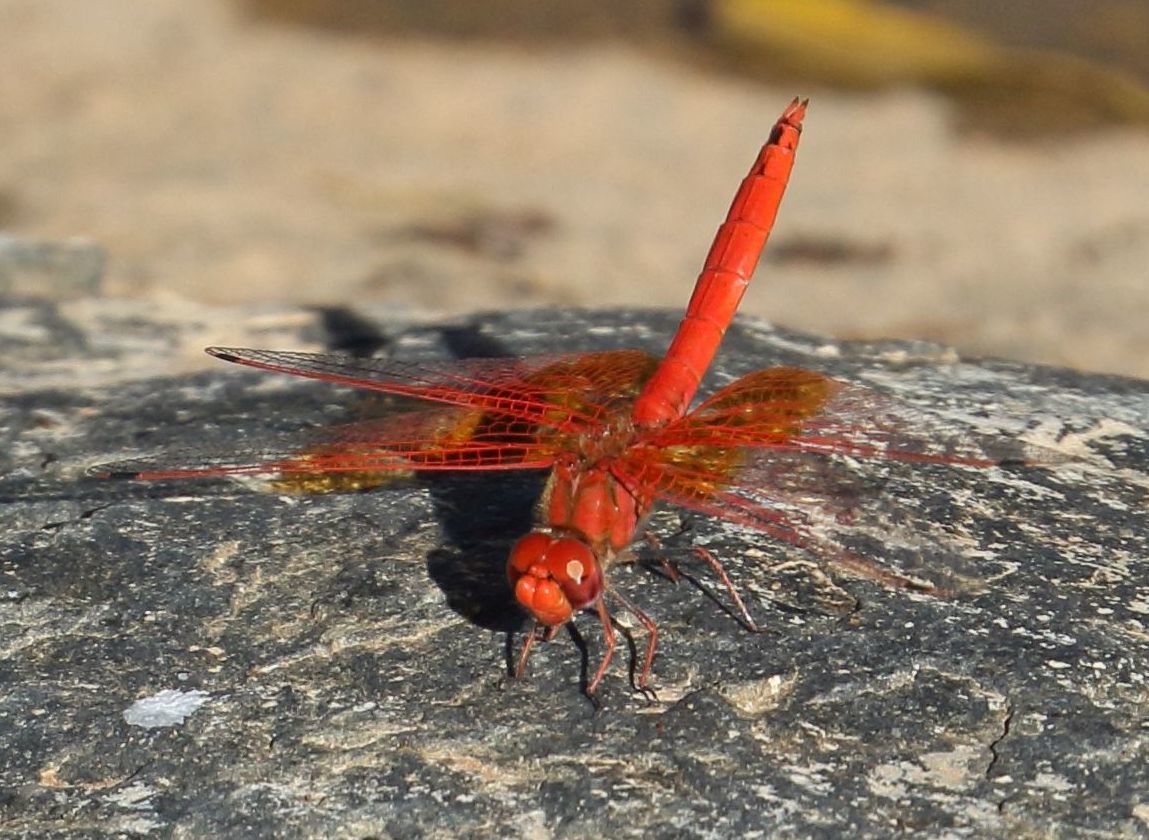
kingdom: Animalia
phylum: Arthropoda
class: Insecta
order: Odonata
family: Libellulidae
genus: Trithemis
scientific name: Trithemis kirbyi
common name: Kirby's dropwing
